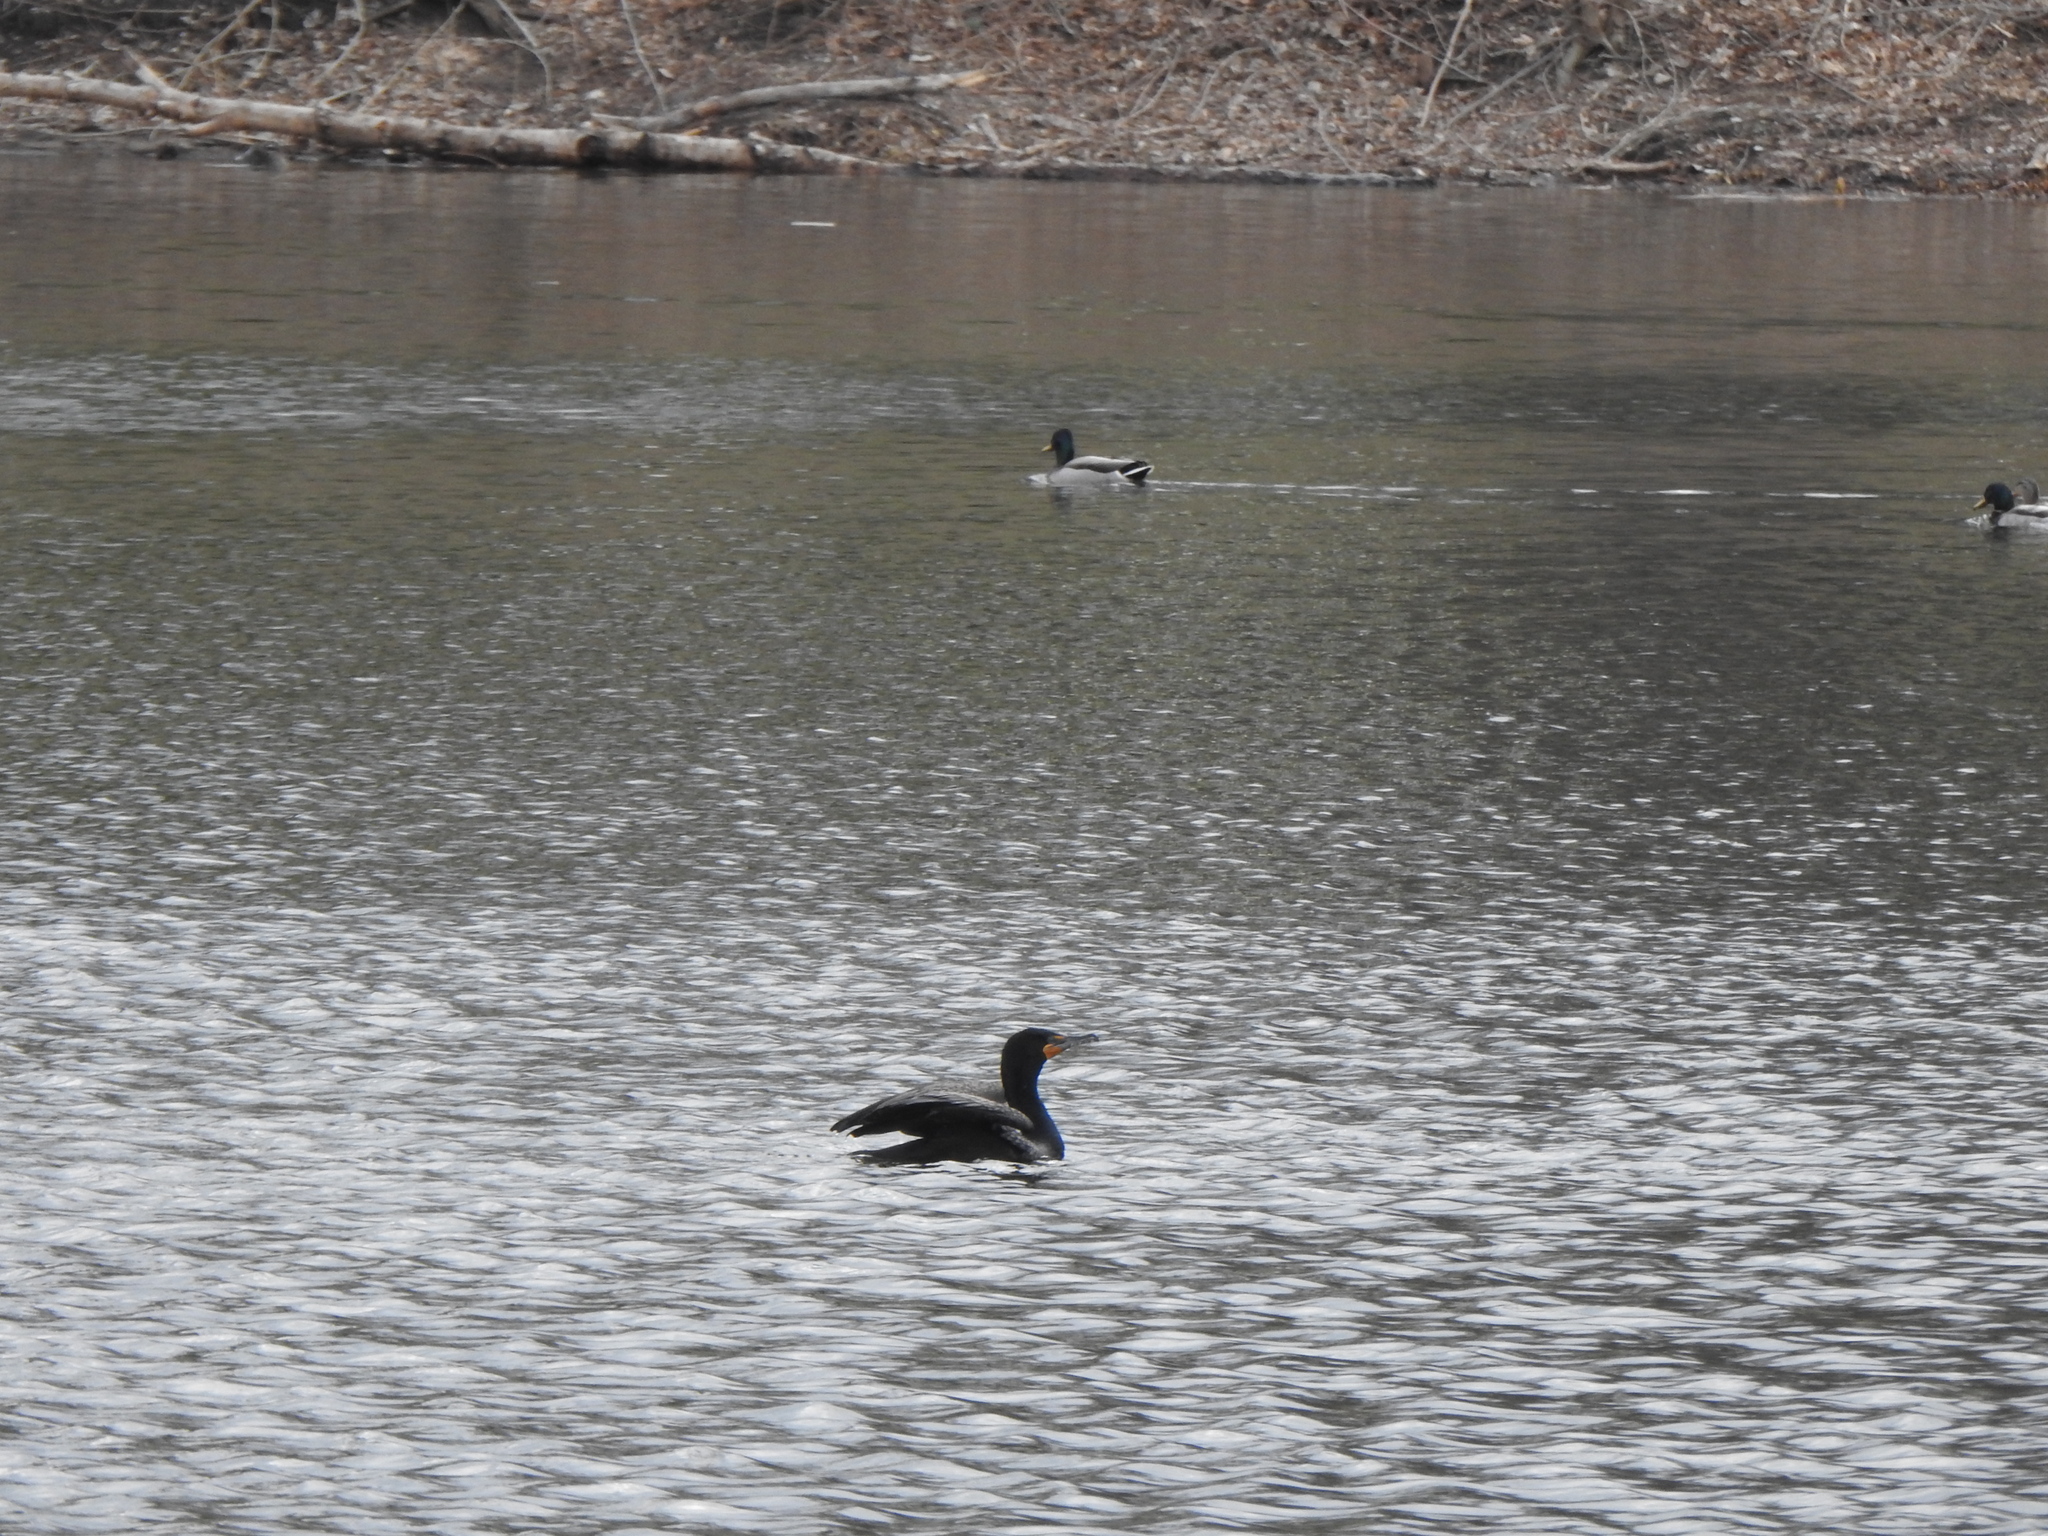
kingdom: Animalia
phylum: Chordata
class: Aves
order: Suliformes
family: Phalacrocoracidae
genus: Phalacrocorax
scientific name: Phalacrocorax auritus
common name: Double-crested cormorant
